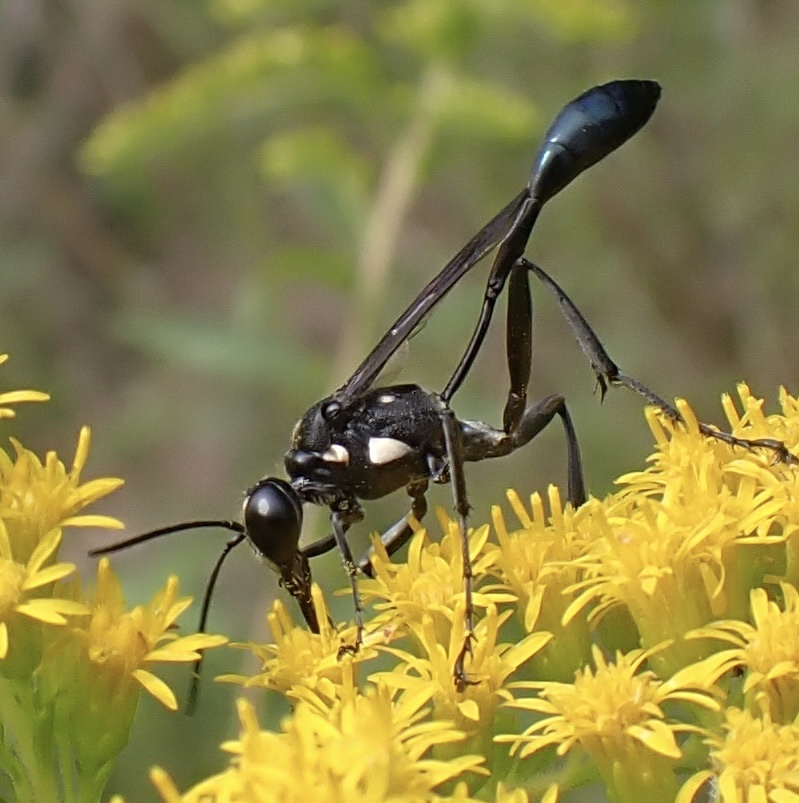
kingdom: Animalia
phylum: Arthropoda
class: Insecta
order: Hymenoptera
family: Sphecidae
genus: Eremnophila
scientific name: Eremnophila aureonotata
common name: Gold-marked thread-waisted wasp
